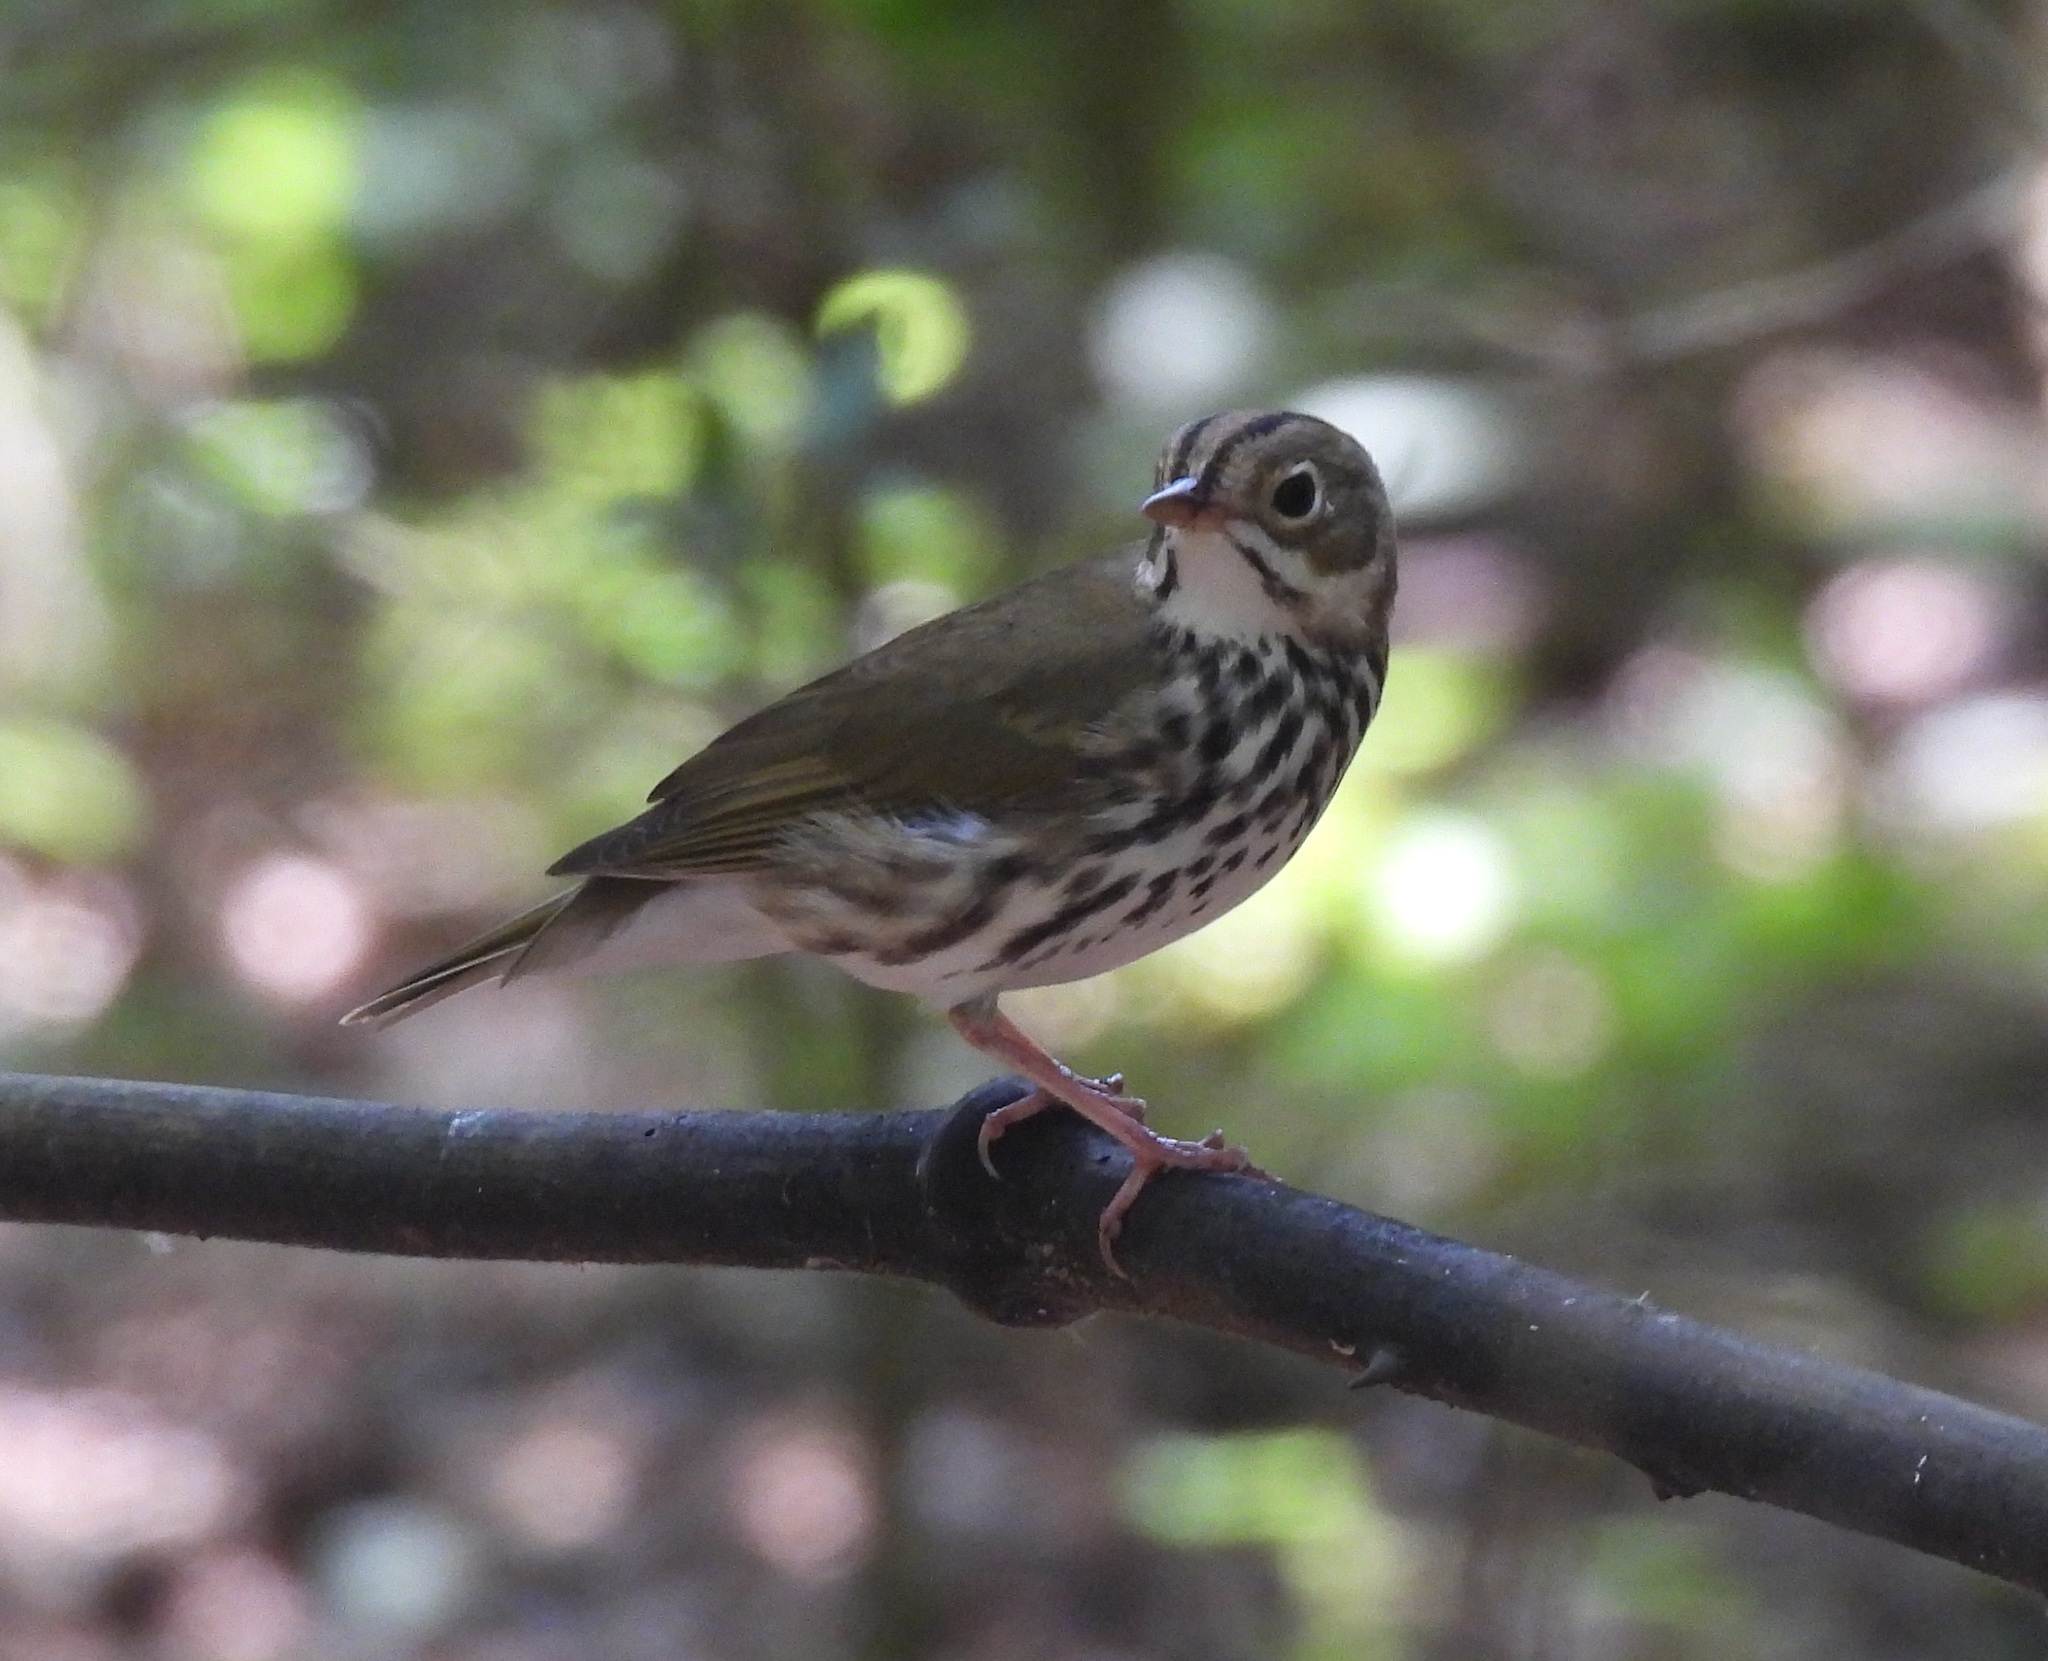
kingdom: Animalia
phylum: Chordata
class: Aves
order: Passeriformes
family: Parulidae
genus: Seiurus
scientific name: Seiurus aurocapilla
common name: Ovenbird
